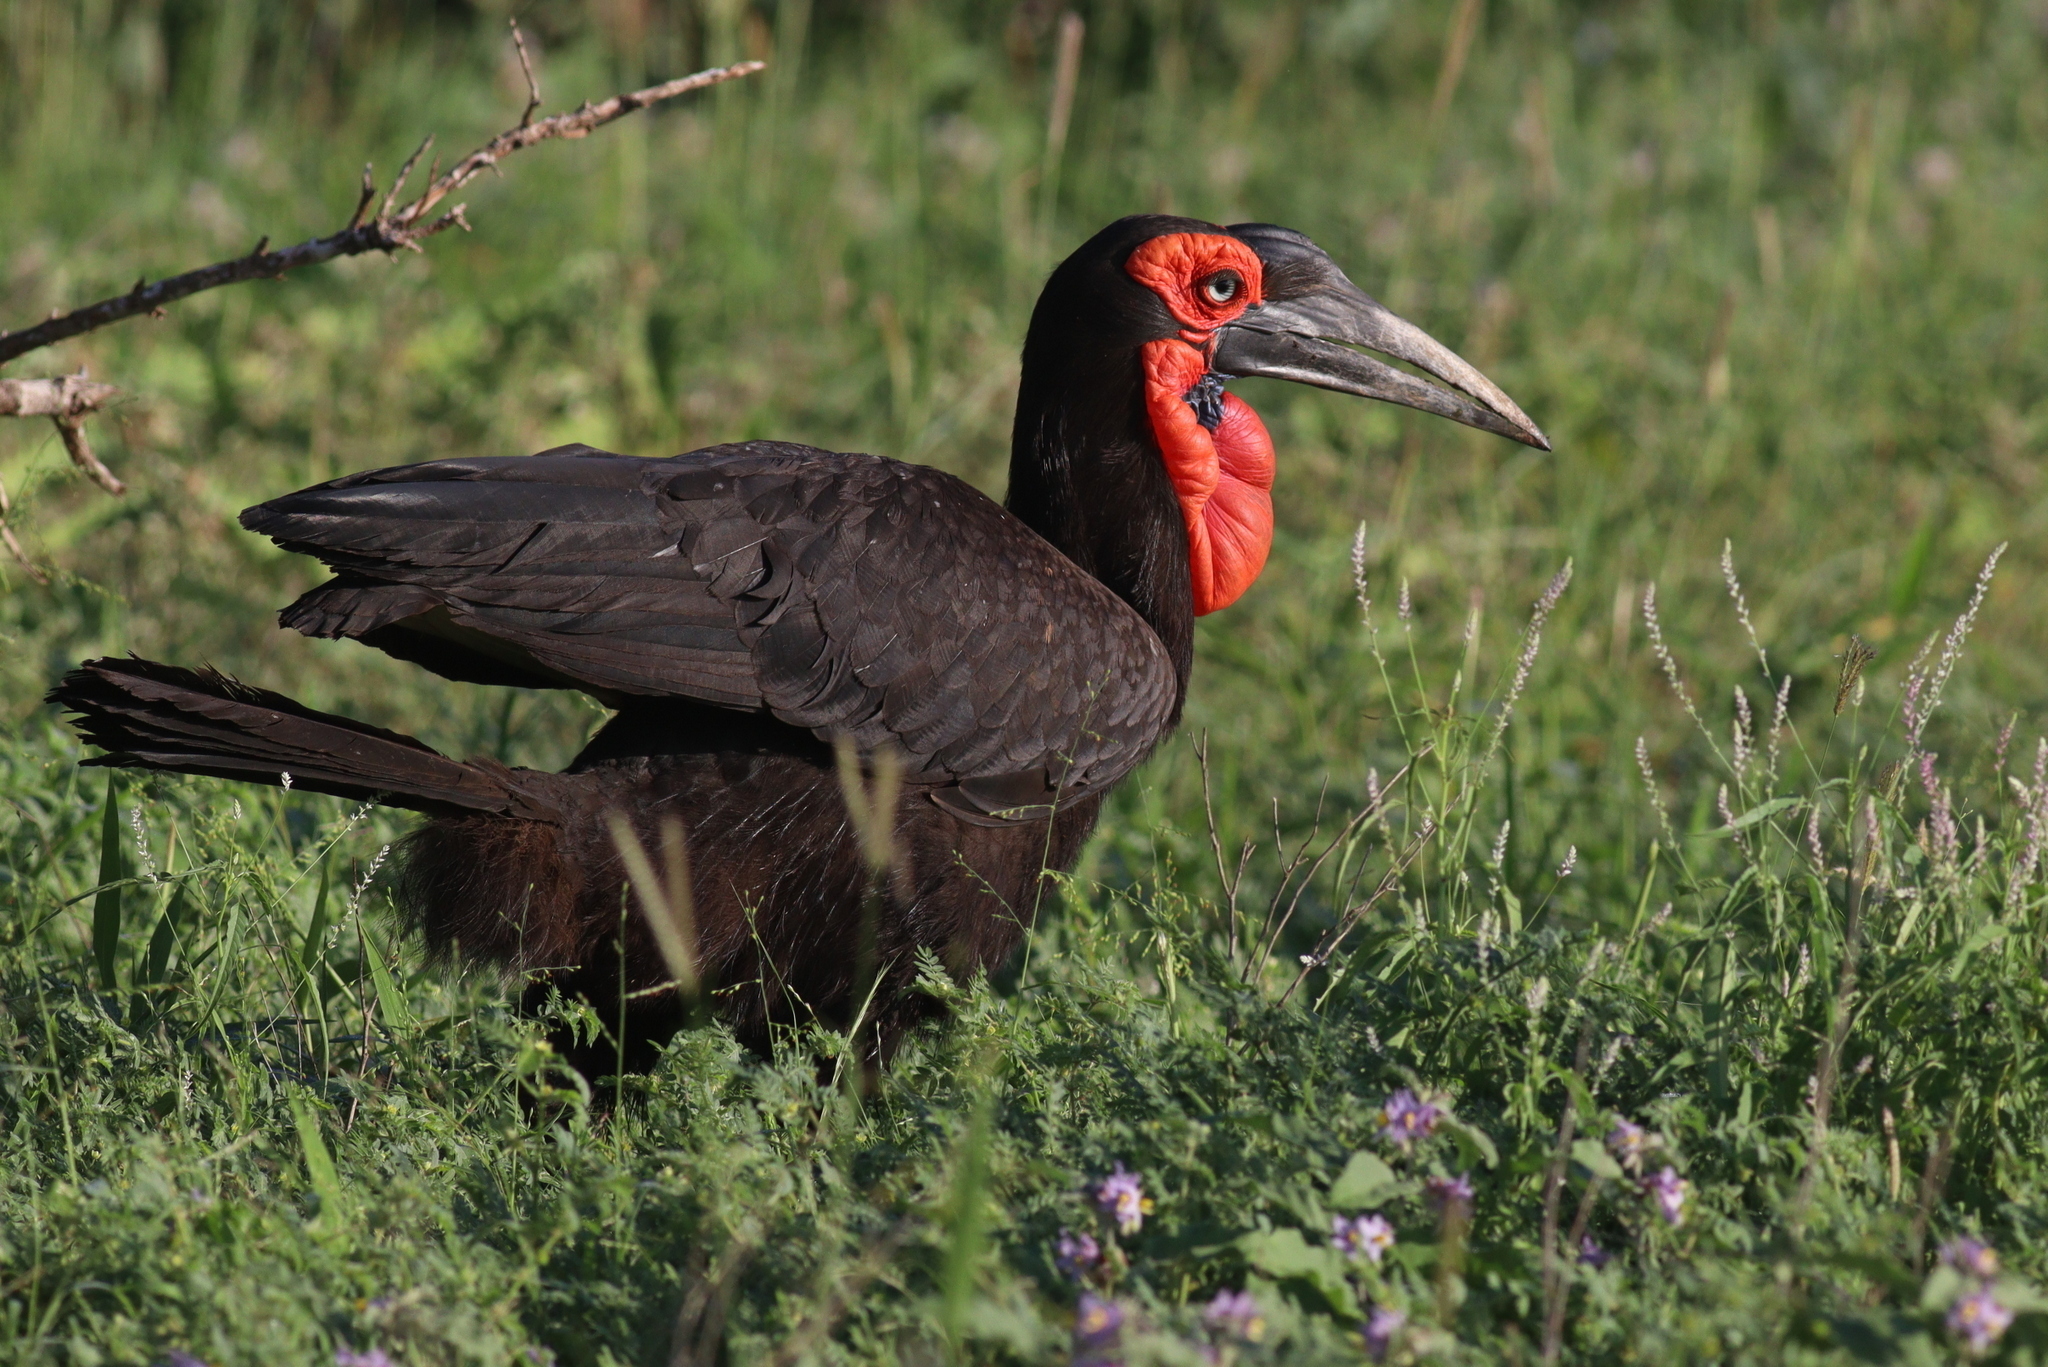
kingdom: Animalia
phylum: Chordata
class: Aves
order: Bucerotiformes
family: Bucorvidae
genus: Bucorvus
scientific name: Bucorvus leadbeateri
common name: Southern ground-hornbill
